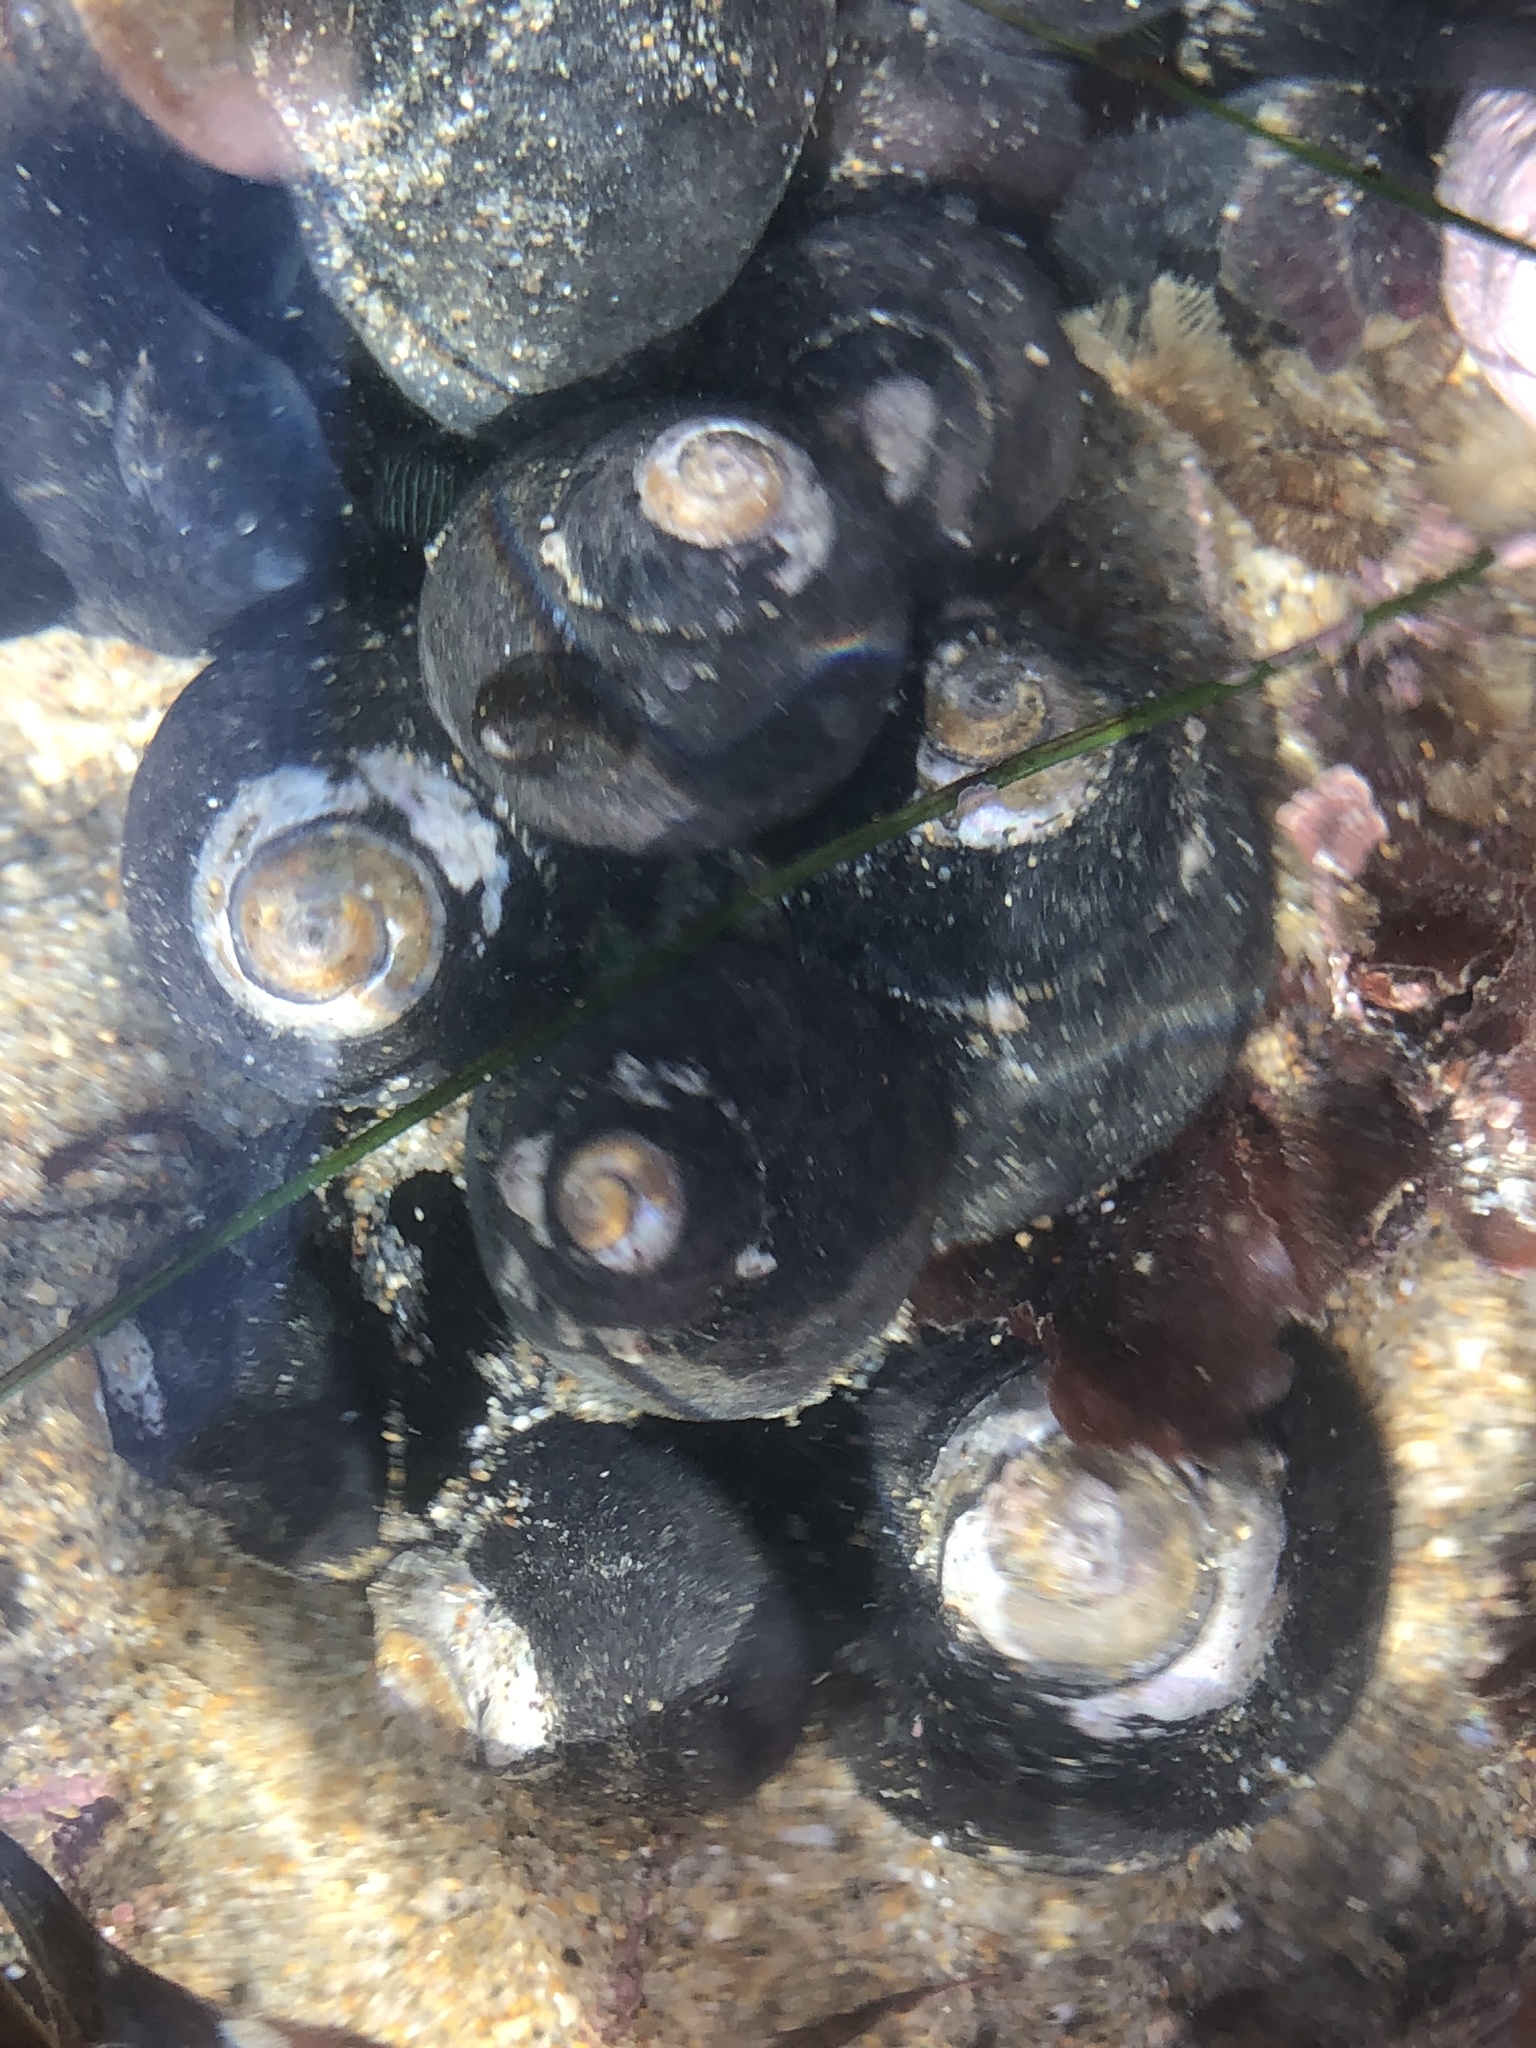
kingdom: Animalia
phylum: Mollusca
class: Gastropoda
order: Trochida
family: Tegulidae
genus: Tegula
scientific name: Tegula funebralis
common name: Black tegula
